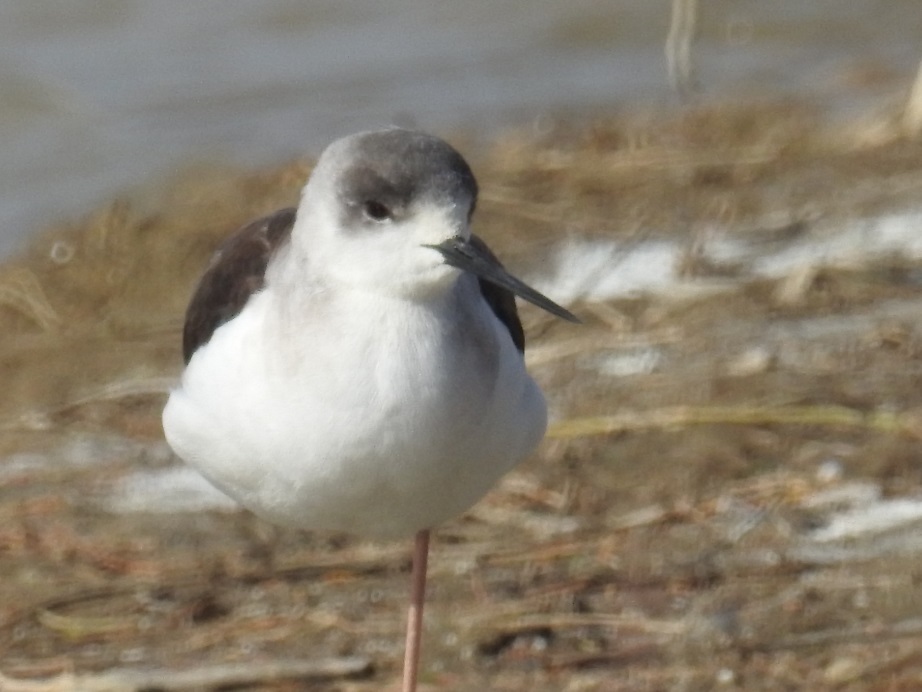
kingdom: Animalia
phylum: Chordata
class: Aves
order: Charadriiformes
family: Recurvirostridae
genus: Himantopus
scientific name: Himantopus himantopus
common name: Black-winged stilt
